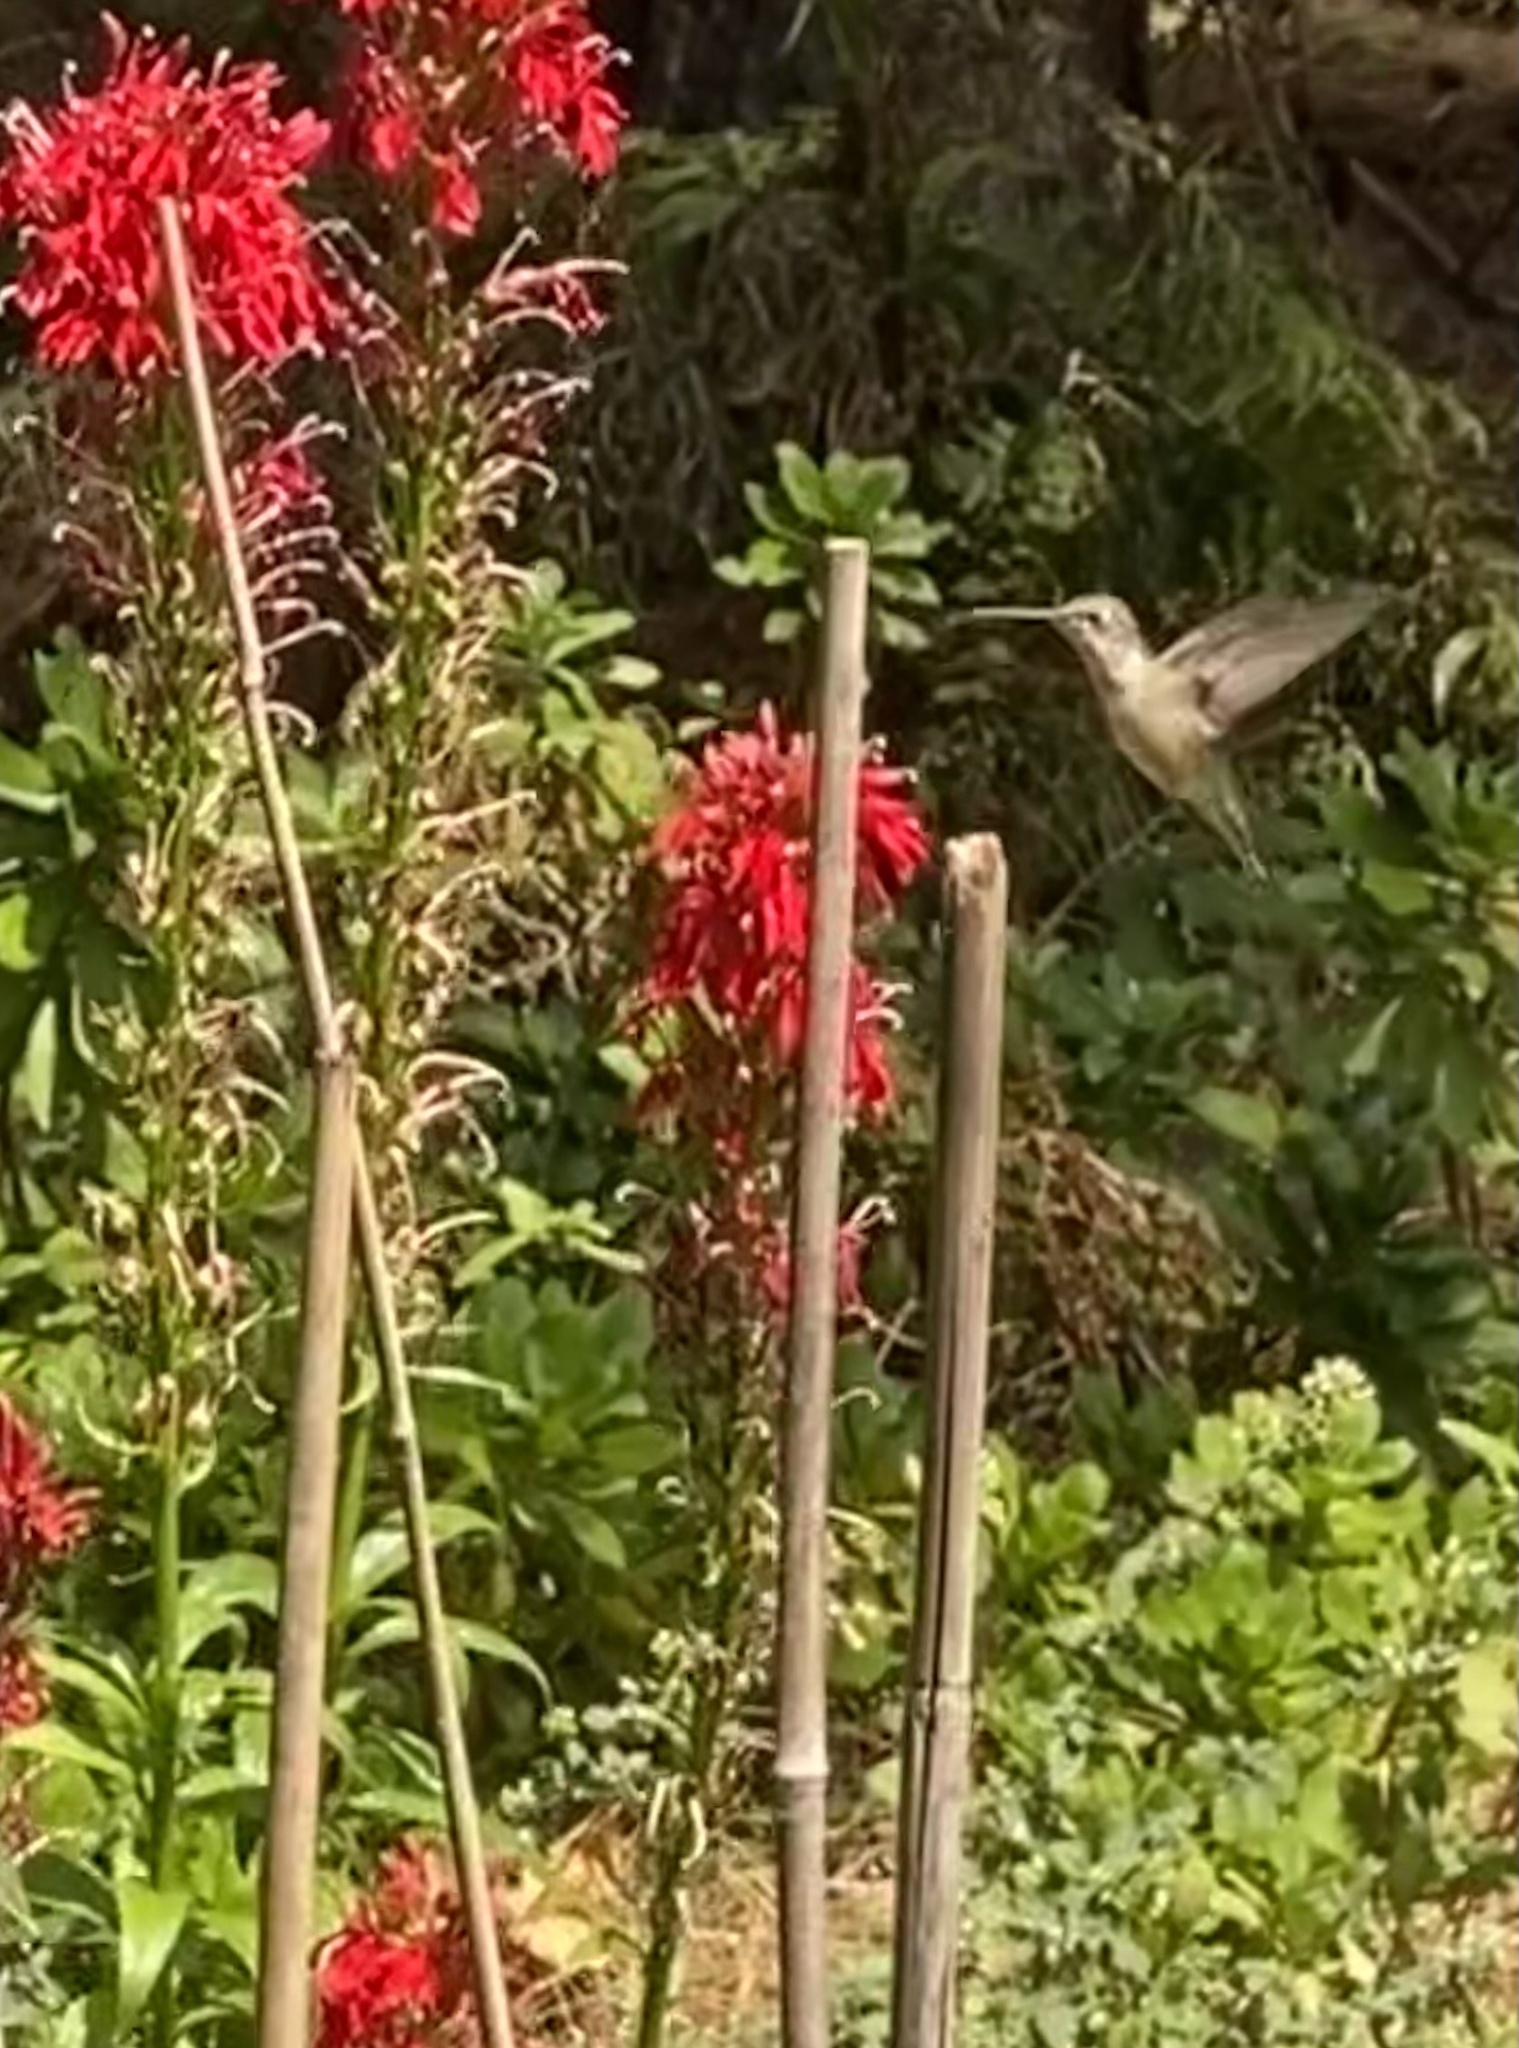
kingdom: Animalia
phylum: Chordata
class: Aves
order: Apodiformes
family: Trochilidae
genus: Archilochus
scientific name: Archilochus colubris
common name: Ruby-throated hummingbird
